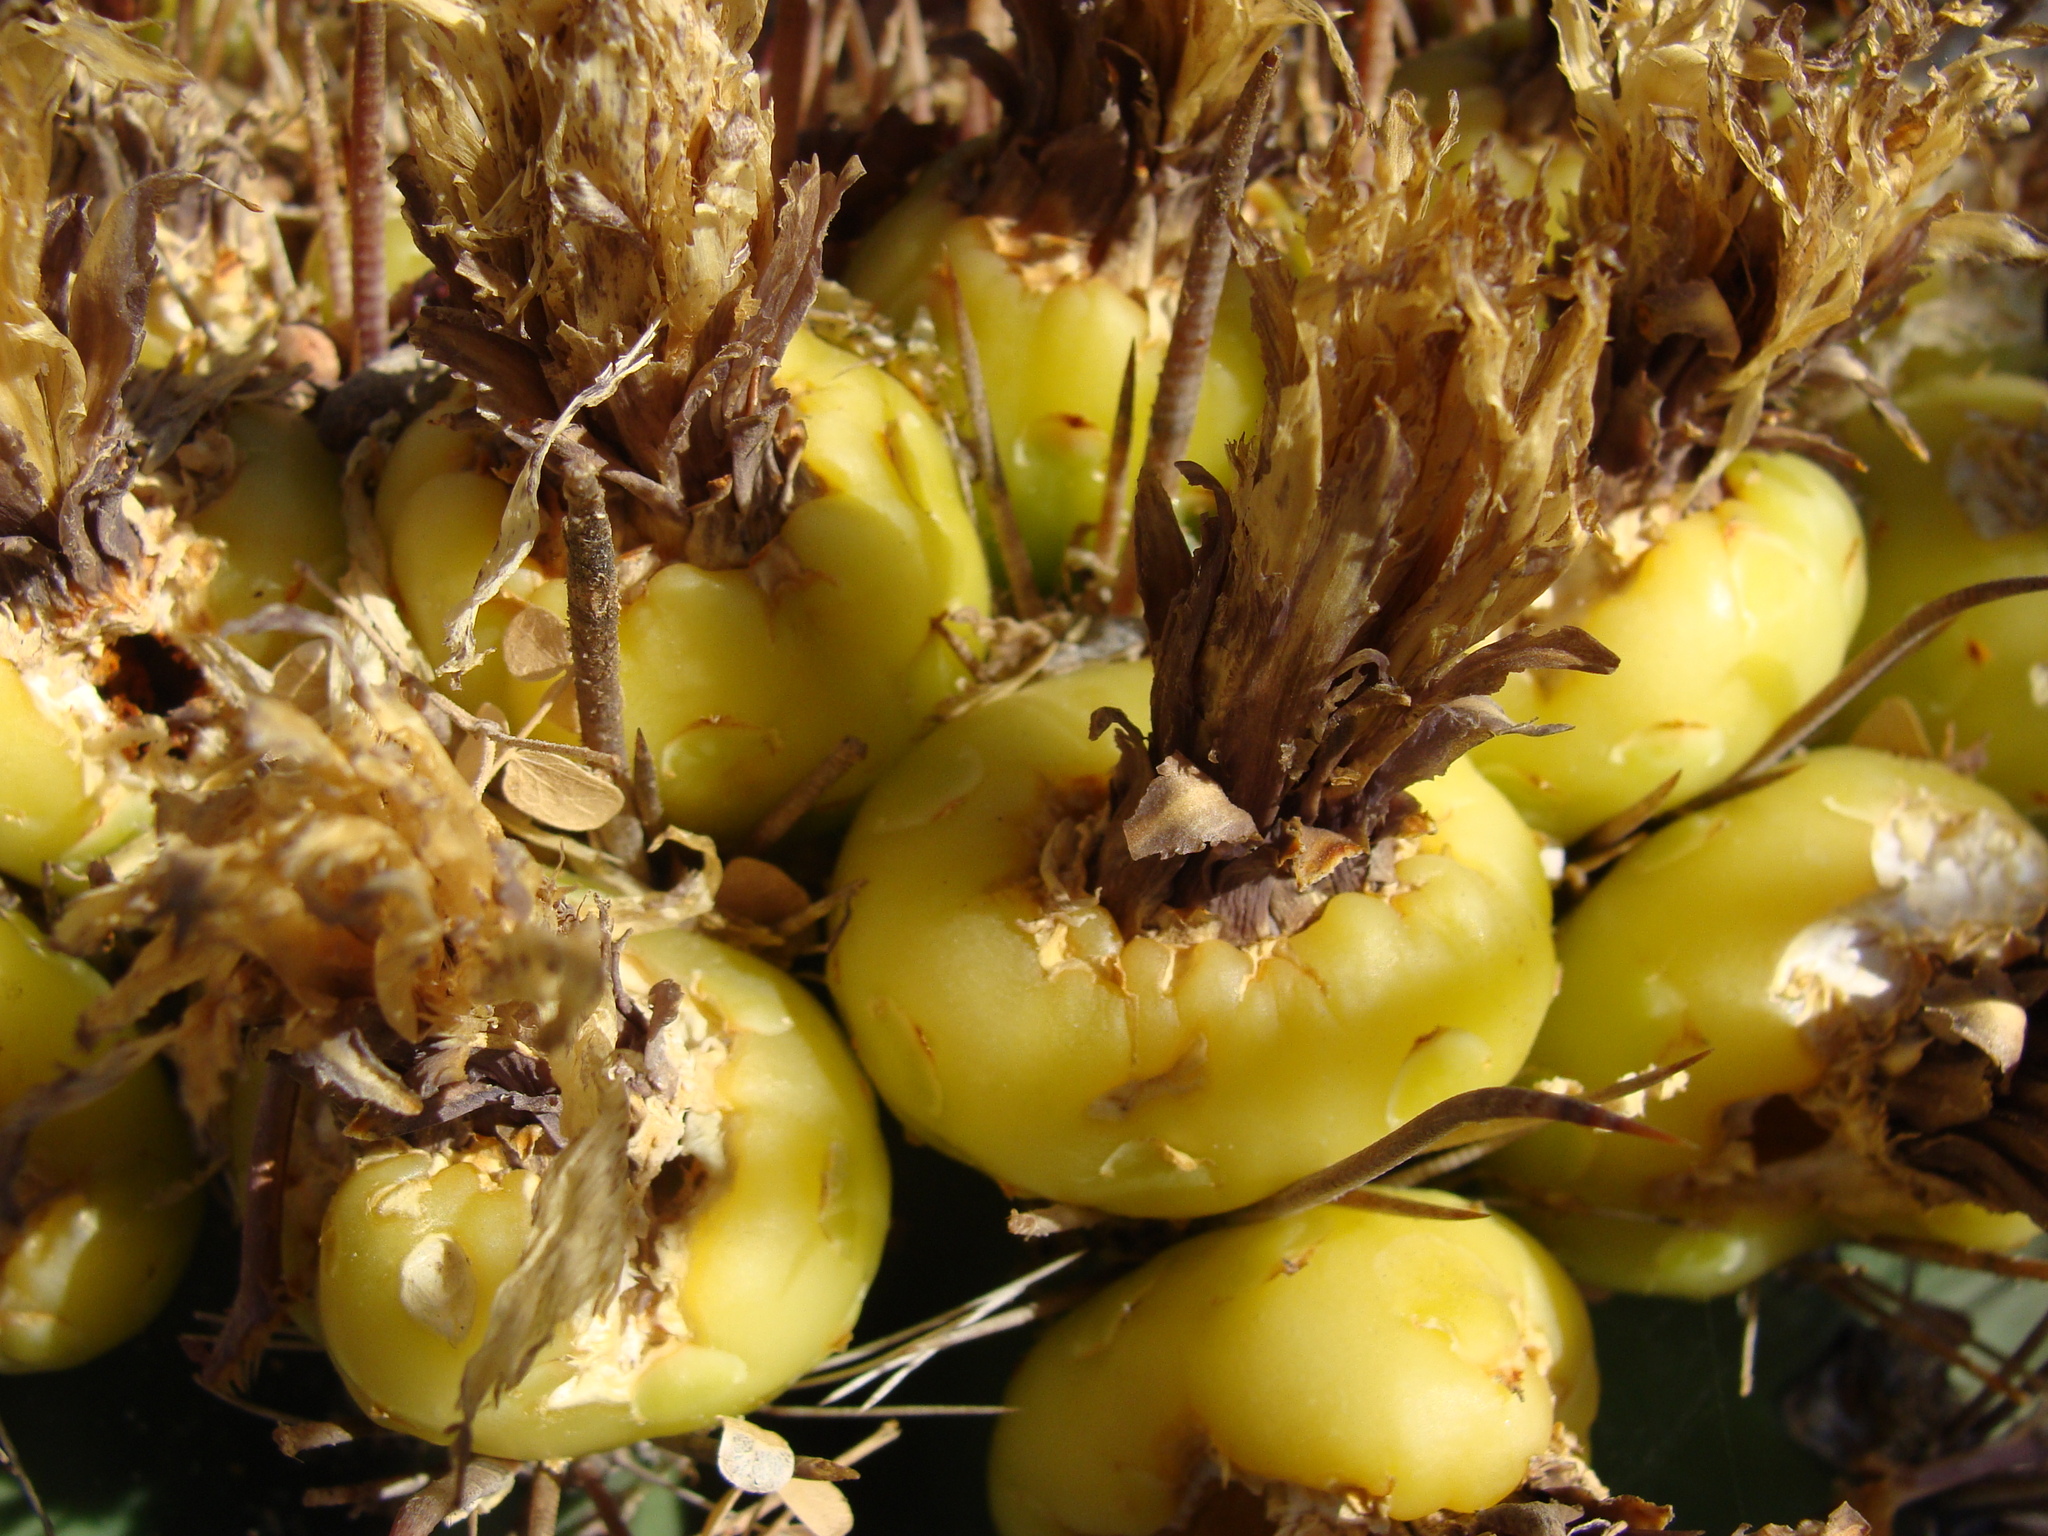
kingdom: Plantae
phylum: Tracheophyta
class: Magnoliopsida
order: Caryophyllales
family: Cactaceae
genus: Ferocactus
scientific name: Ferocactus townsendianus
